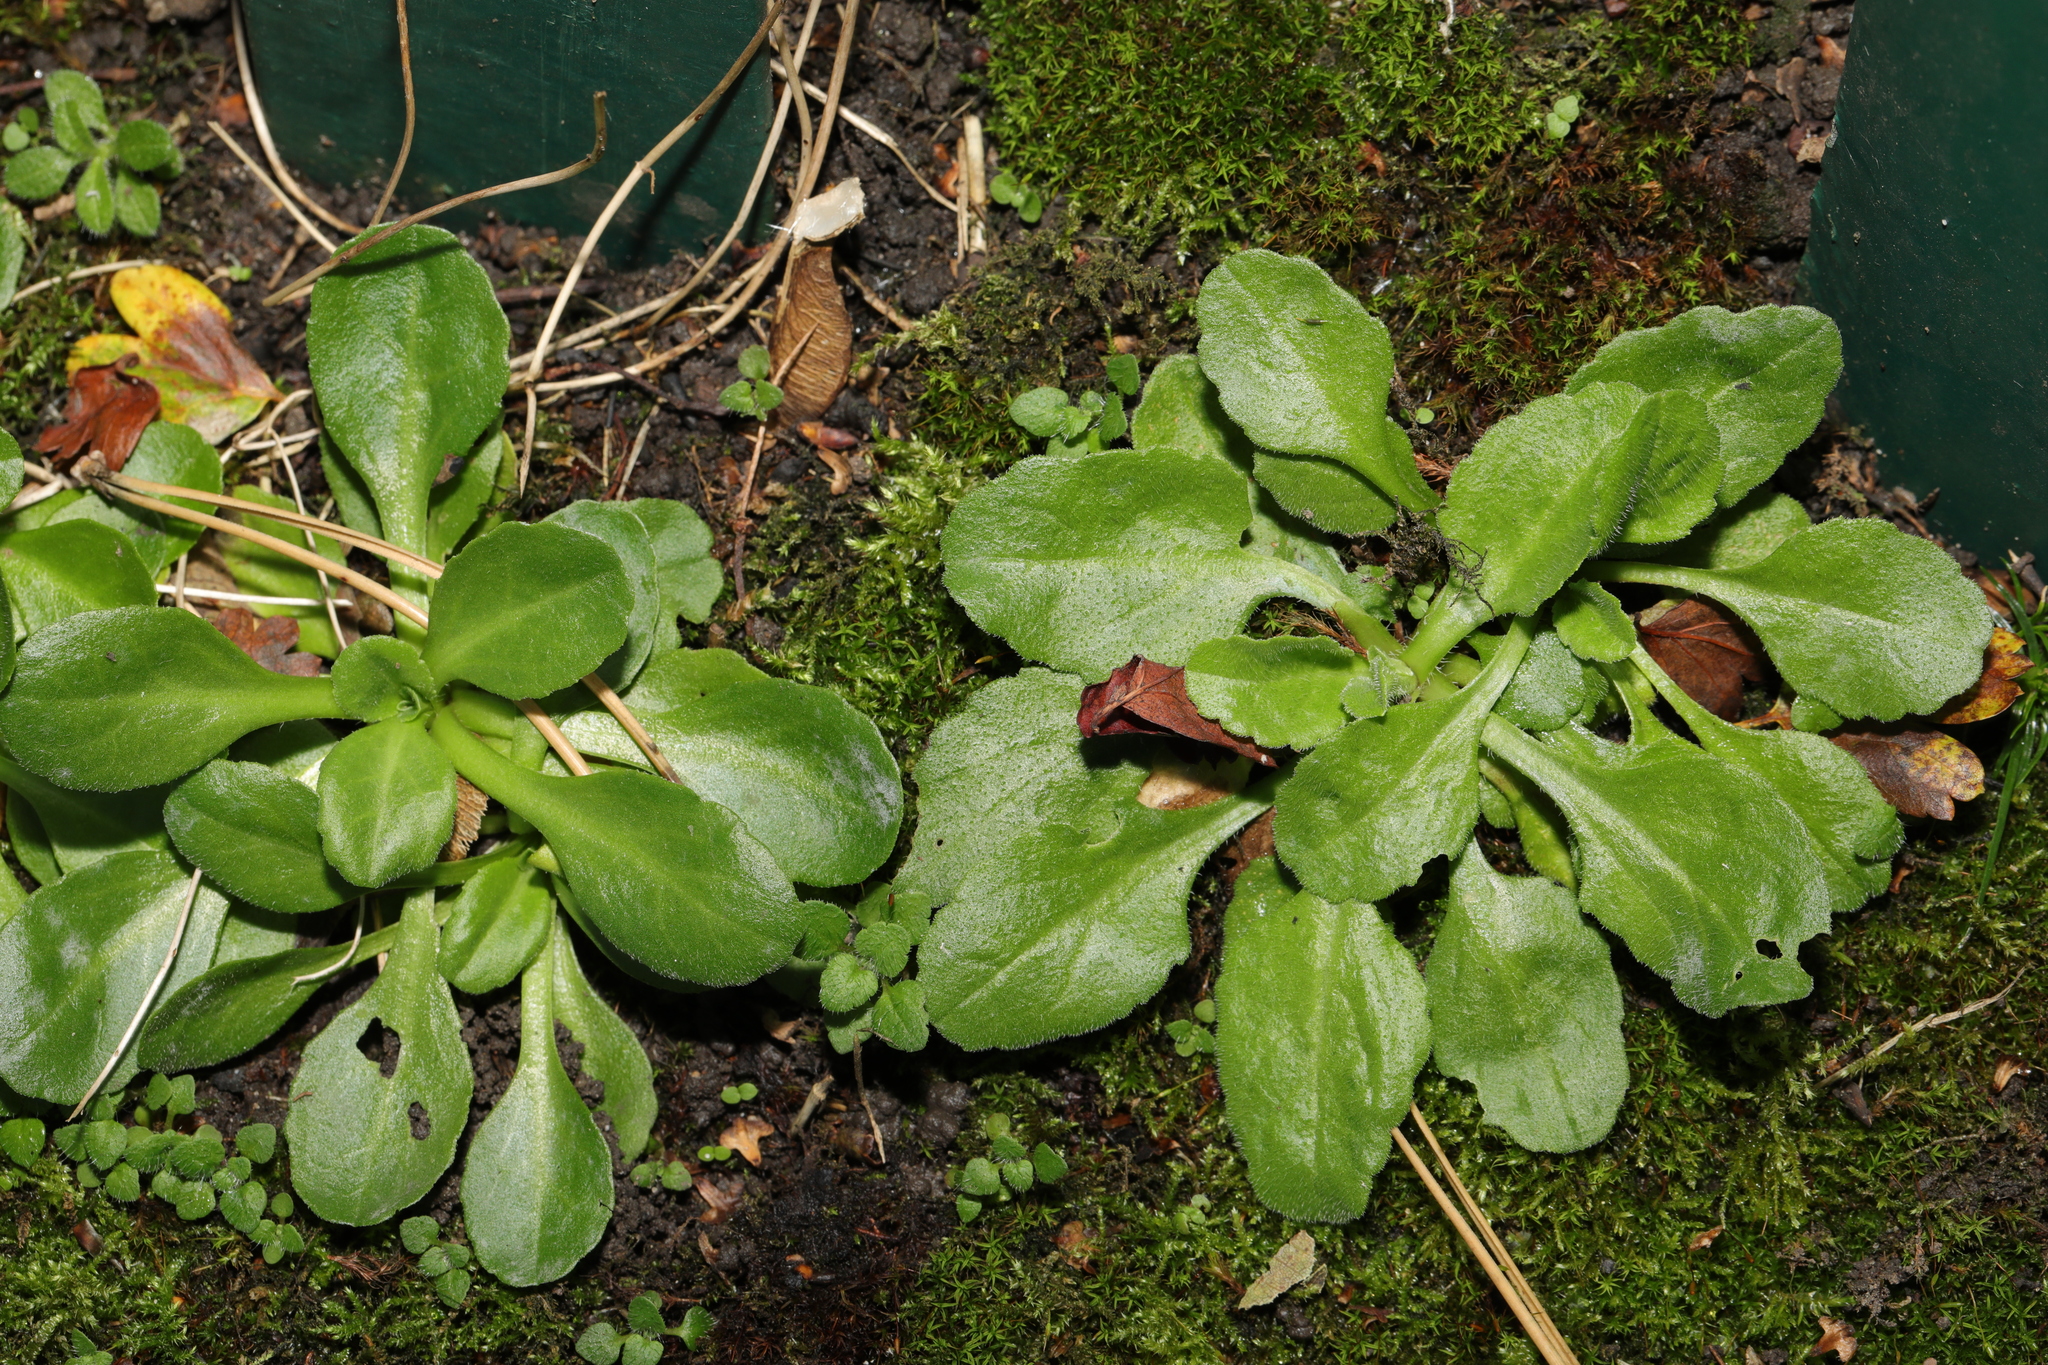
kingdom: Plantae
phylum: Tracheophyta
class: Magnoliopsida
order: Asterales
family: Asteraceae
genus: Bellis
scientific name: Bellis perennis
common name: Lawndaisy
